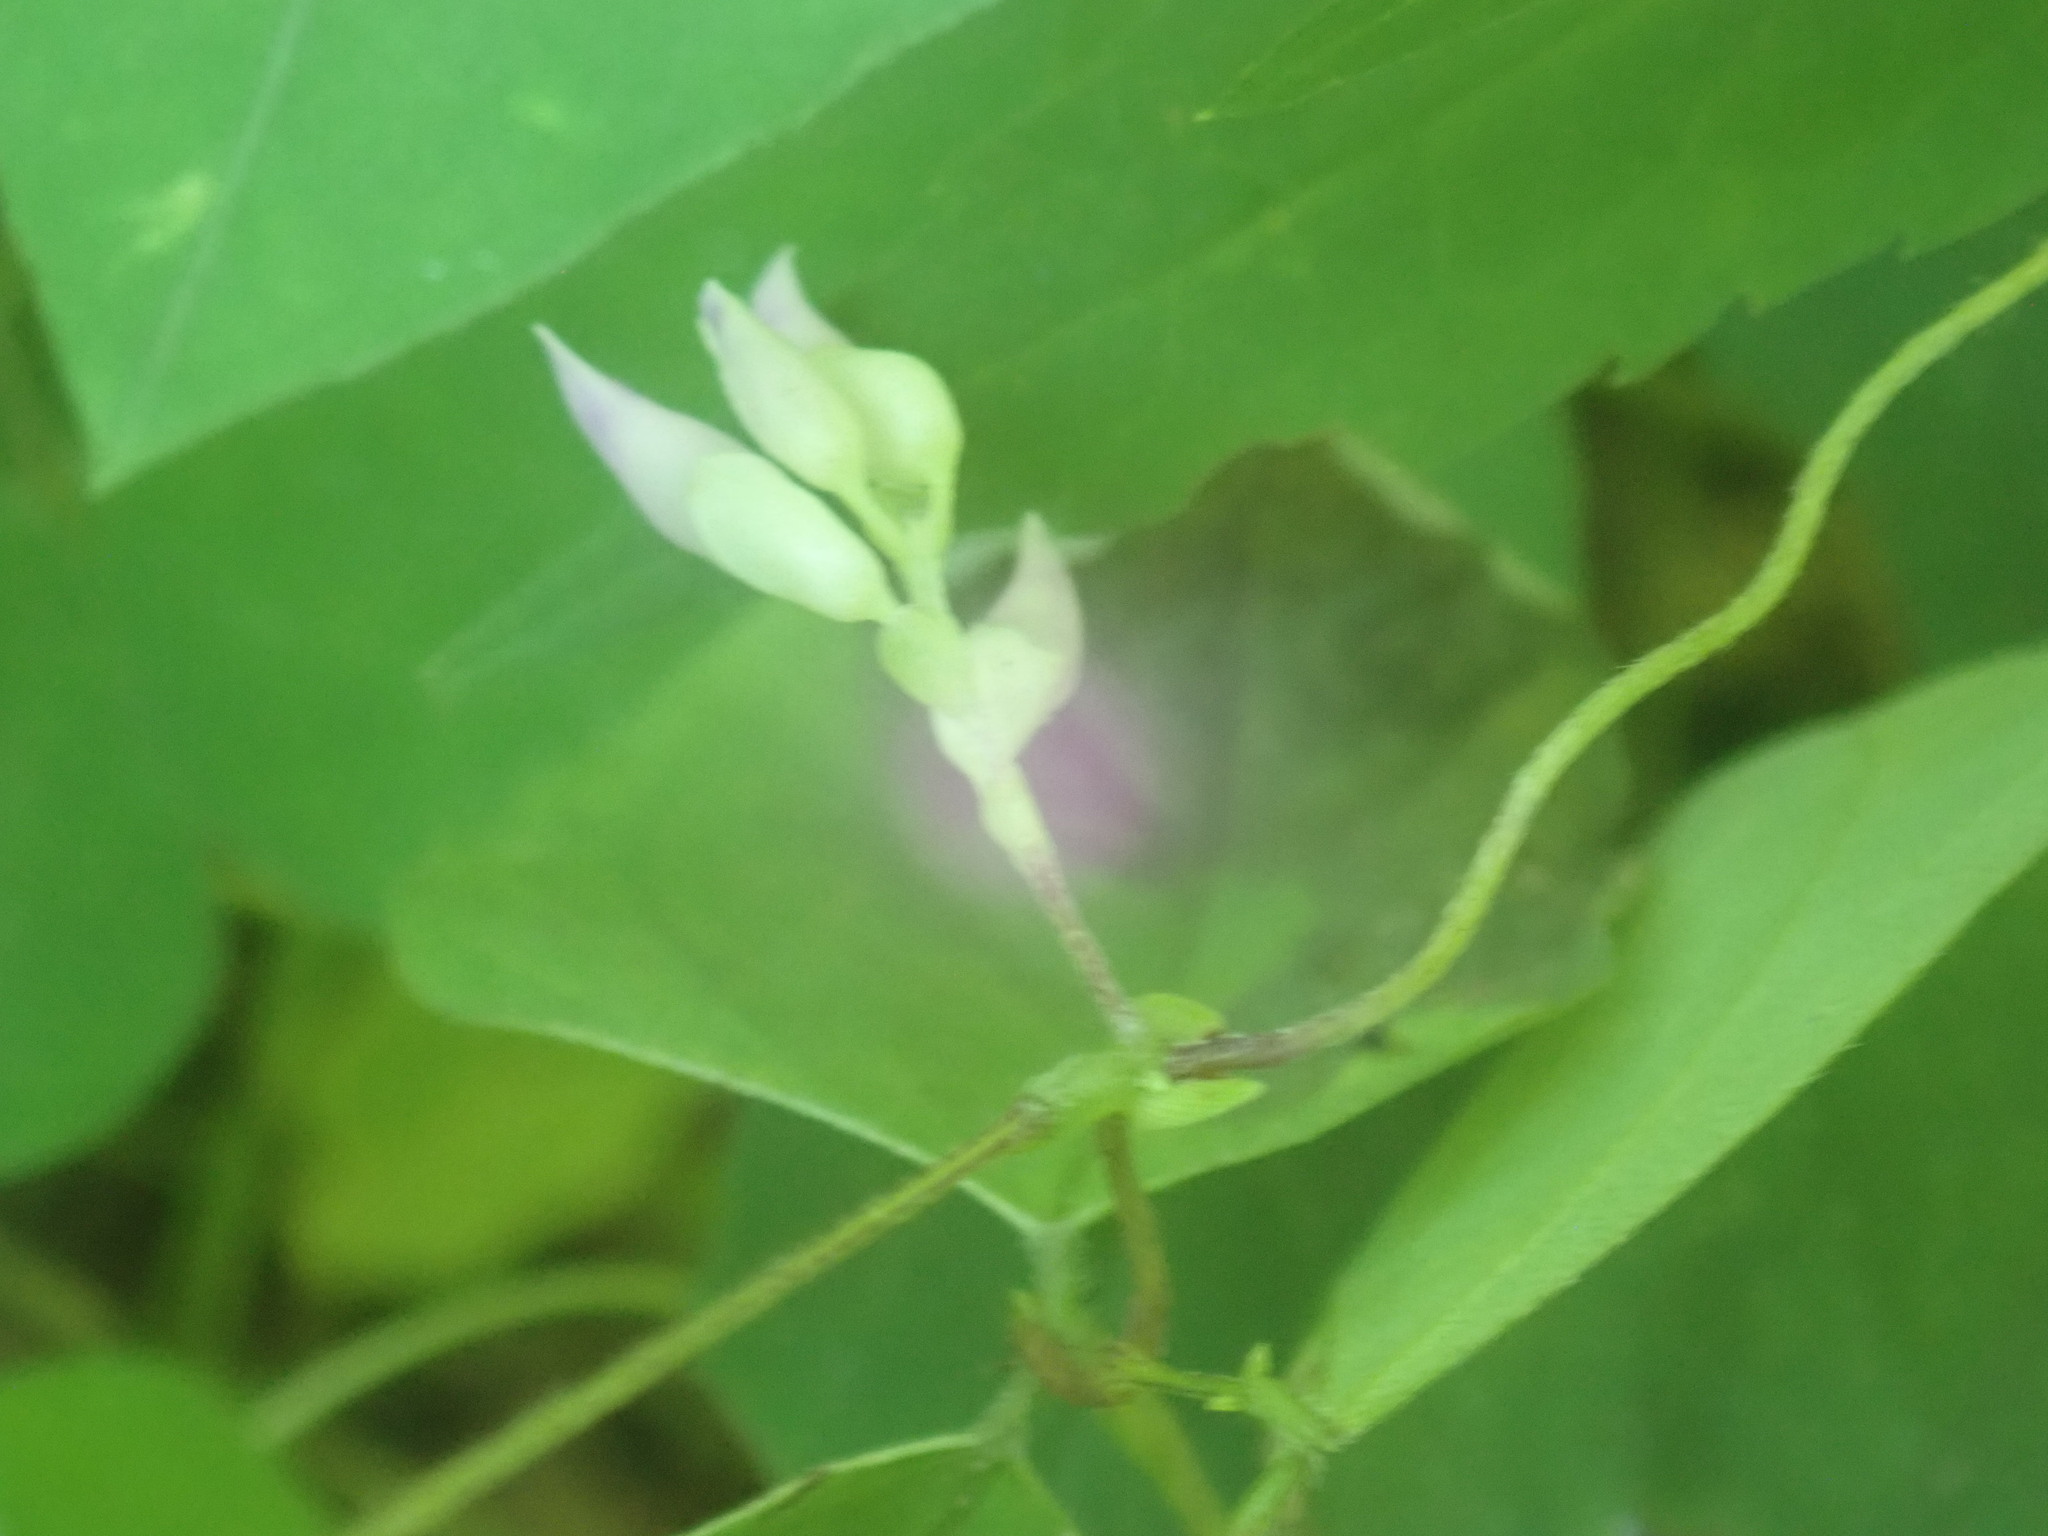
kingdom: Plantae
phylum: Tracheophyta
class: Magnoliopsida
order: Fabales
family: Fabaceae
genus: Amphicarpaea
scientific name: Amphicarpaea bracteata
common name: American hog peanut
